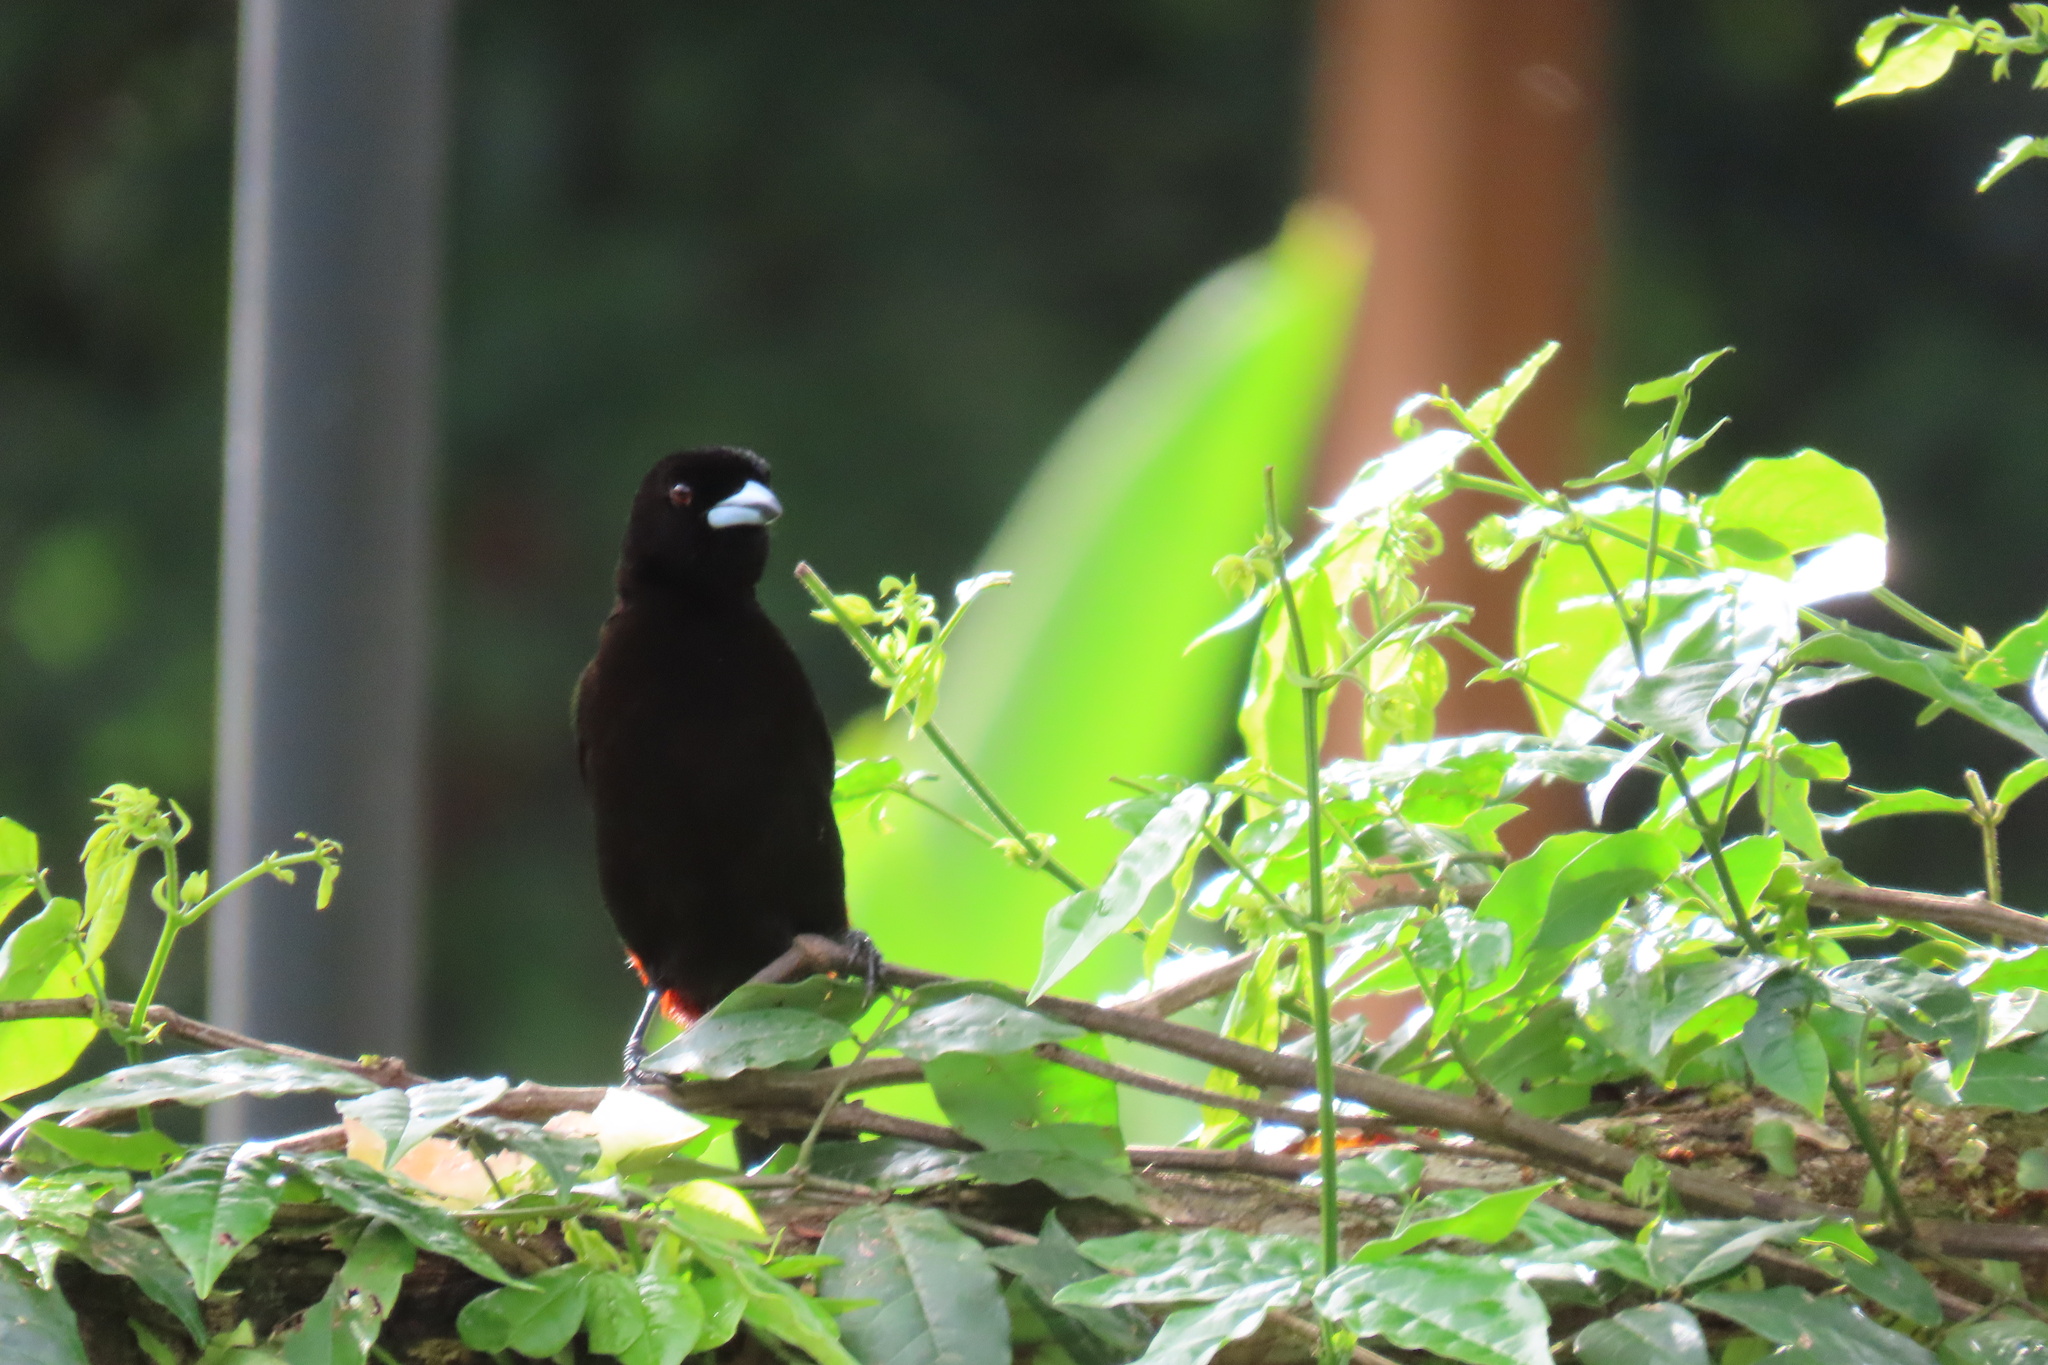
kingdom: Animalia
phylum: Chordata
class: Aves
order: Passeriformes
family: Thraupidae
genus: Ramphocelus
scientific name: Ramphocelus passerinii
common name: Passerini's tanager
